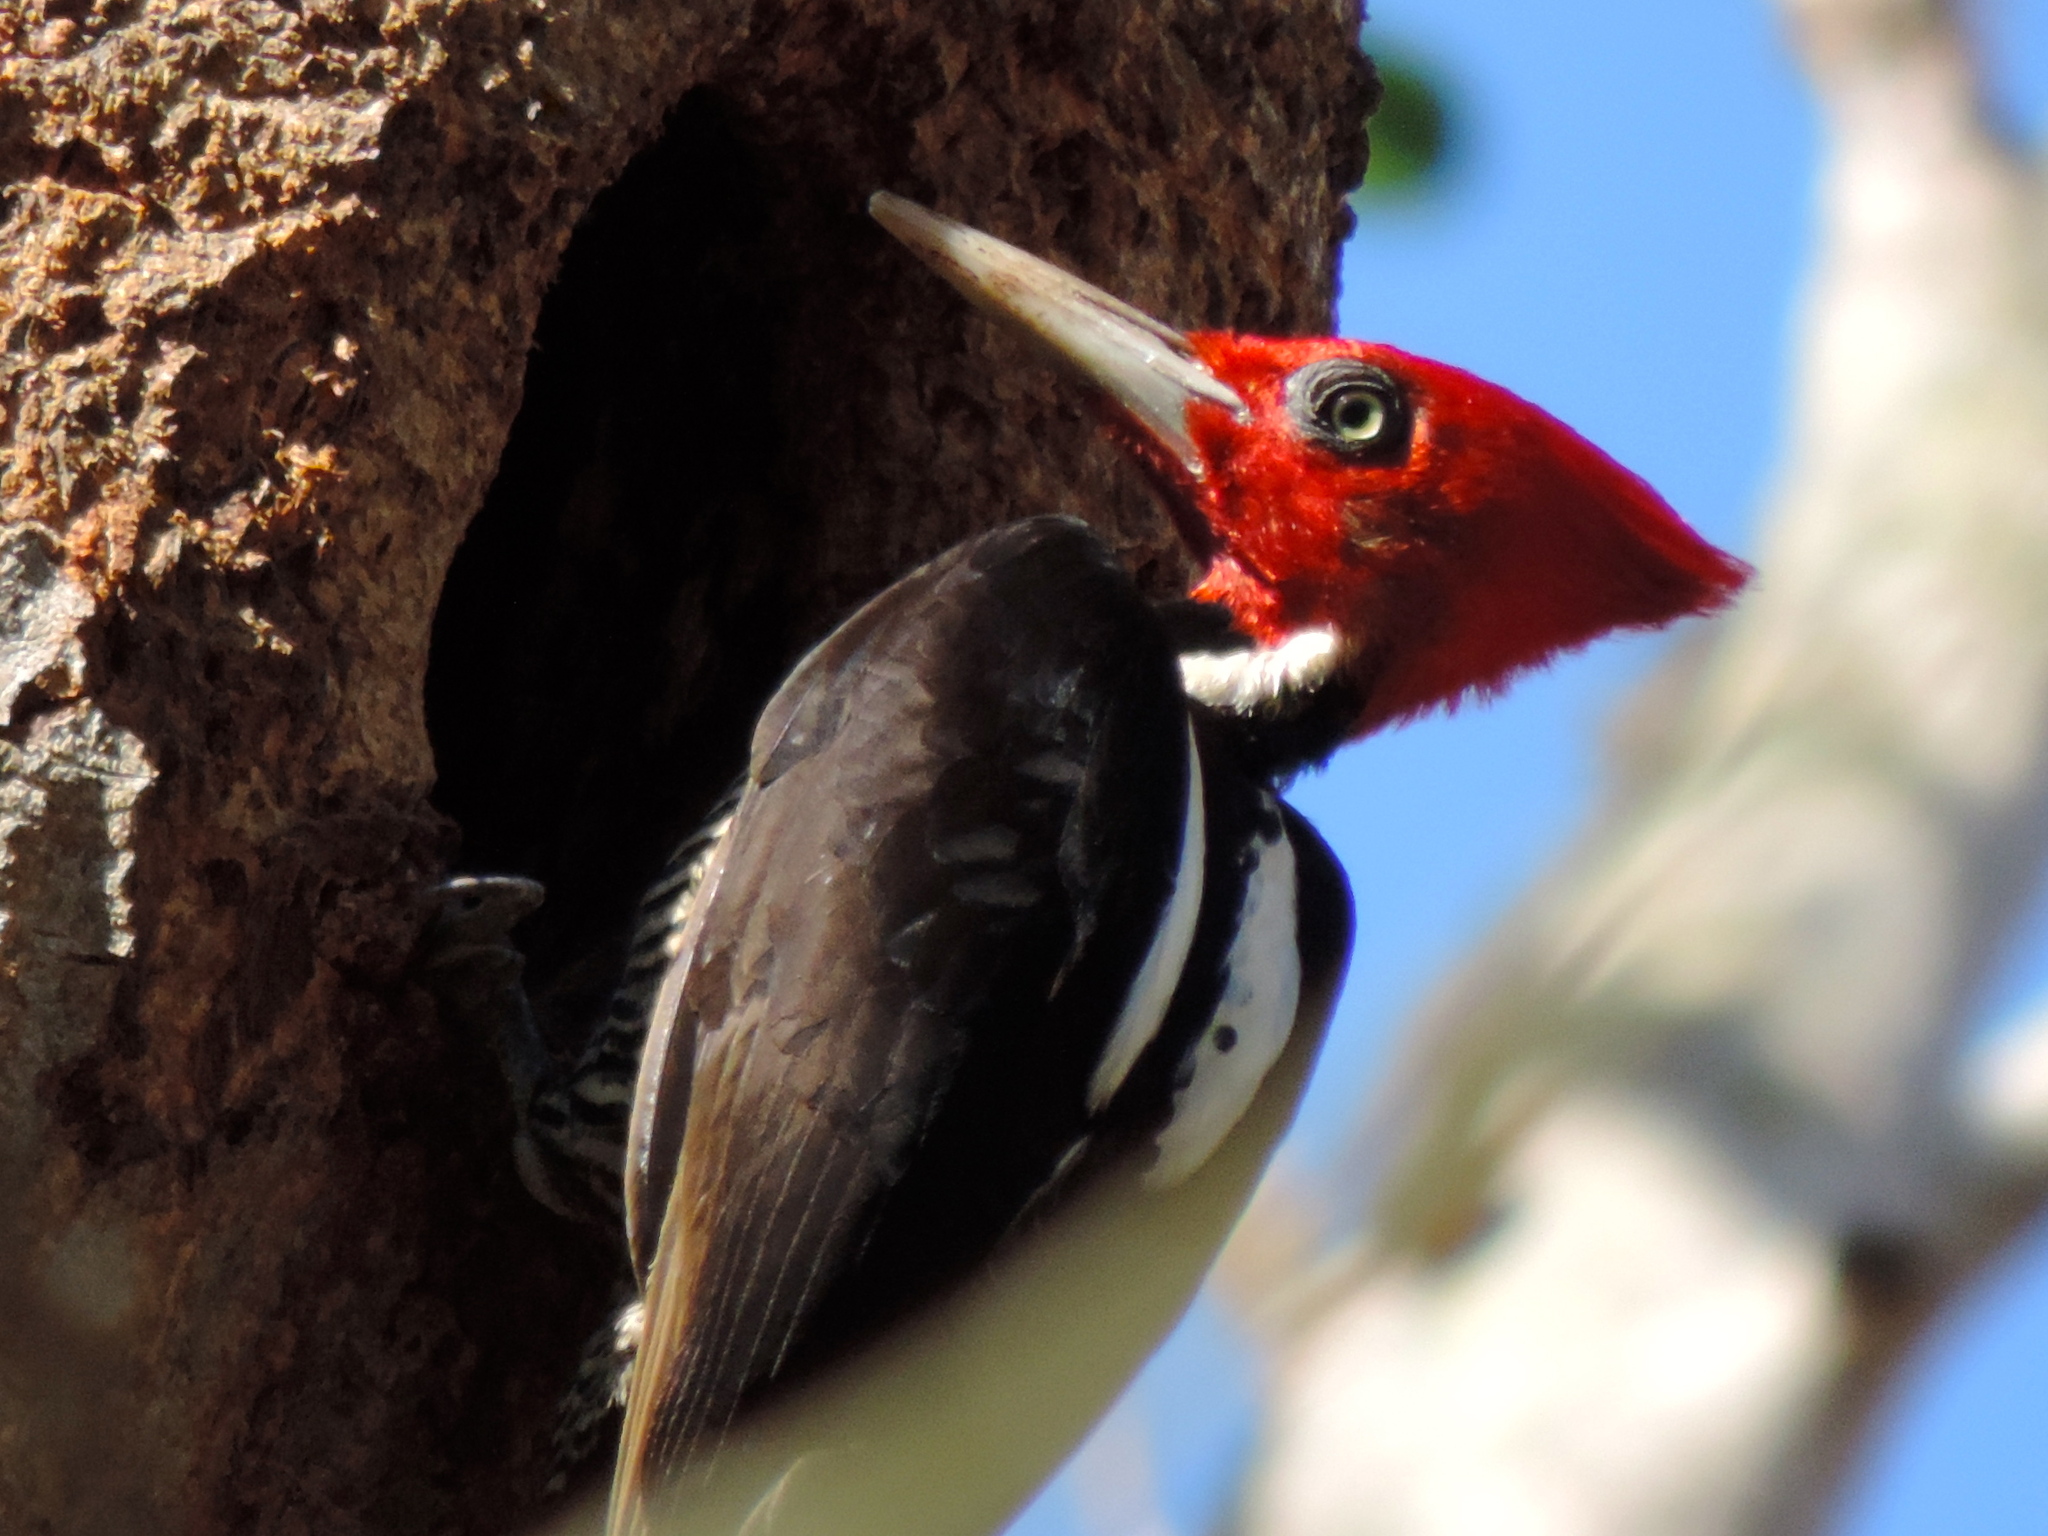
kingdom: Animalia
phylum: Chordata
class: Aves
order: Piciformes
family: Picidae
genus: Campephilus
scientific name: Campephilus guatemalensis
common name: Pale-billed woodpecker
